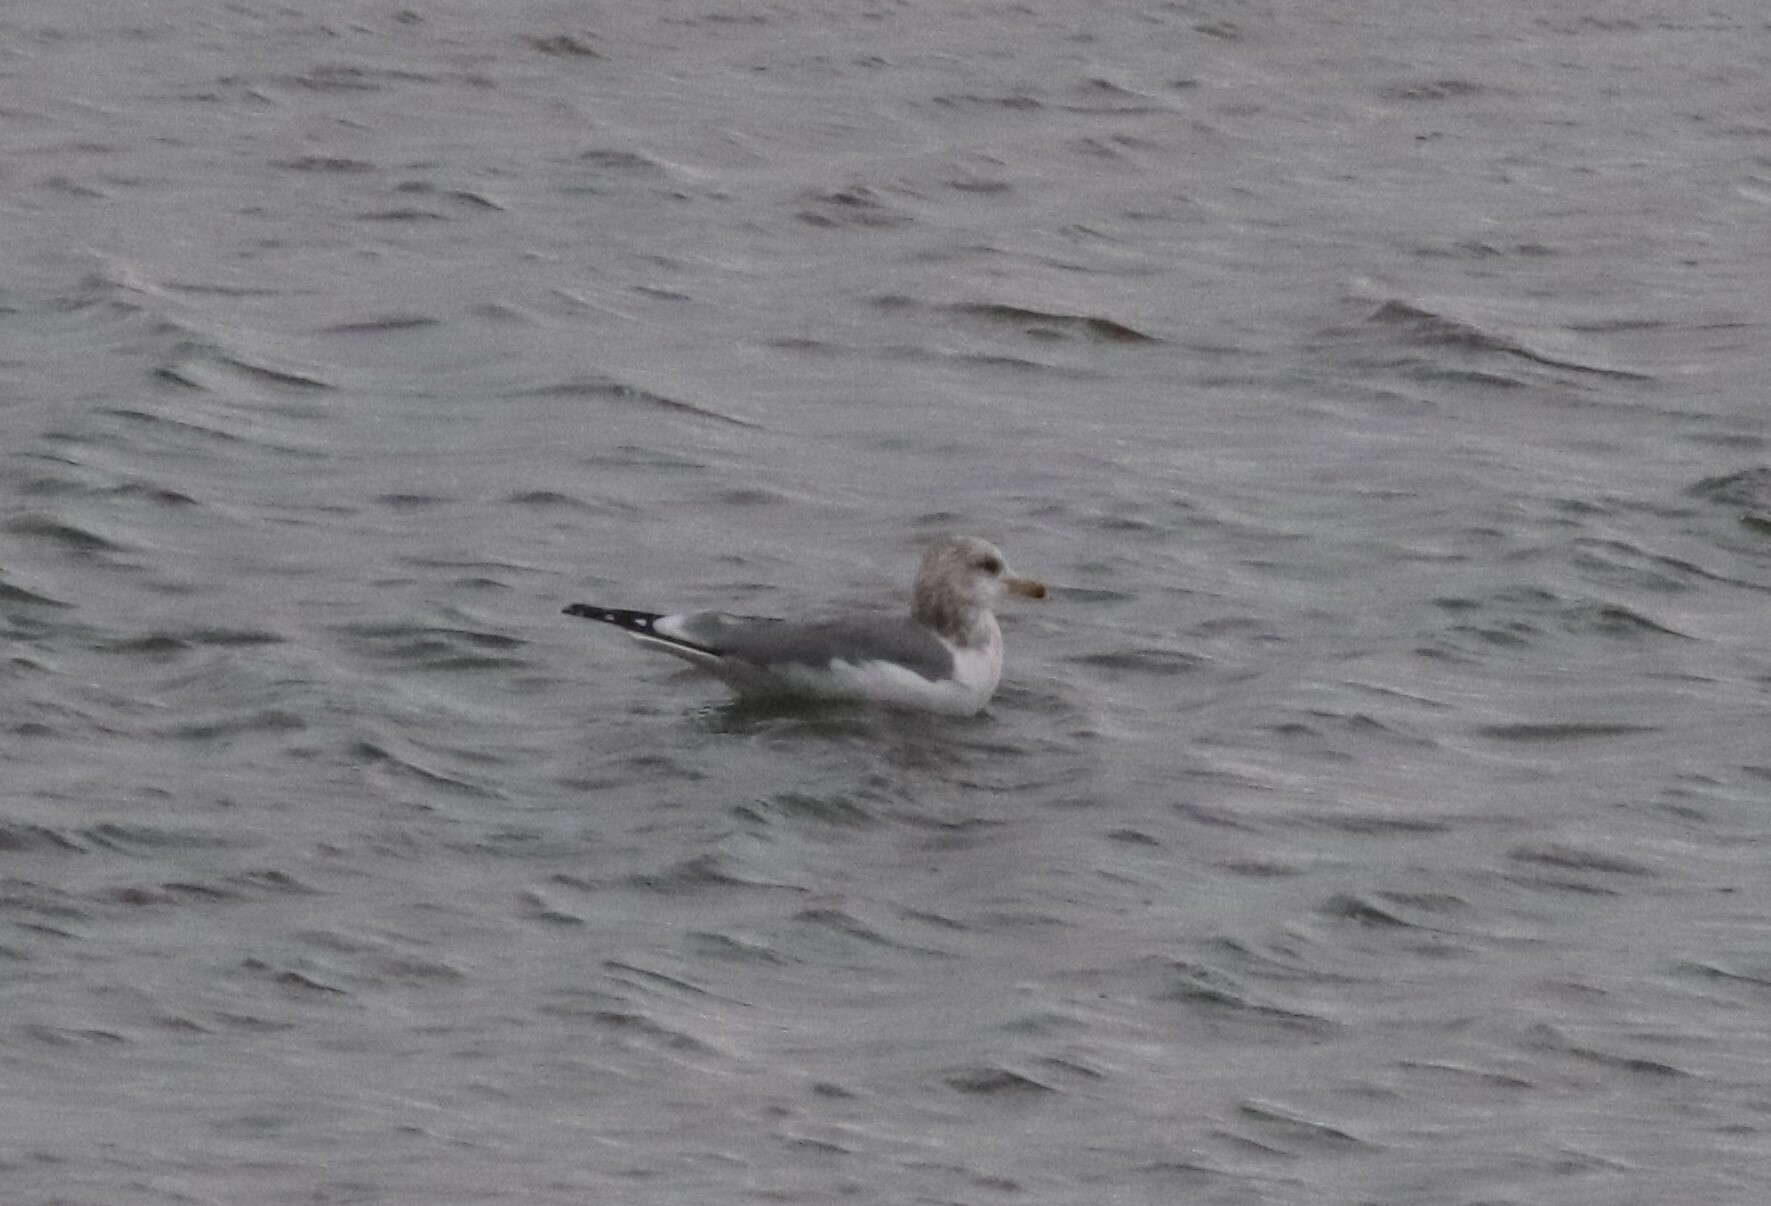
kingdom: Animalia
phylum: Chordata
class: Aves
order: Charadriiformes
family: Laridae
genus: Larus
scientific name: Larus californicus
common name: California gull
